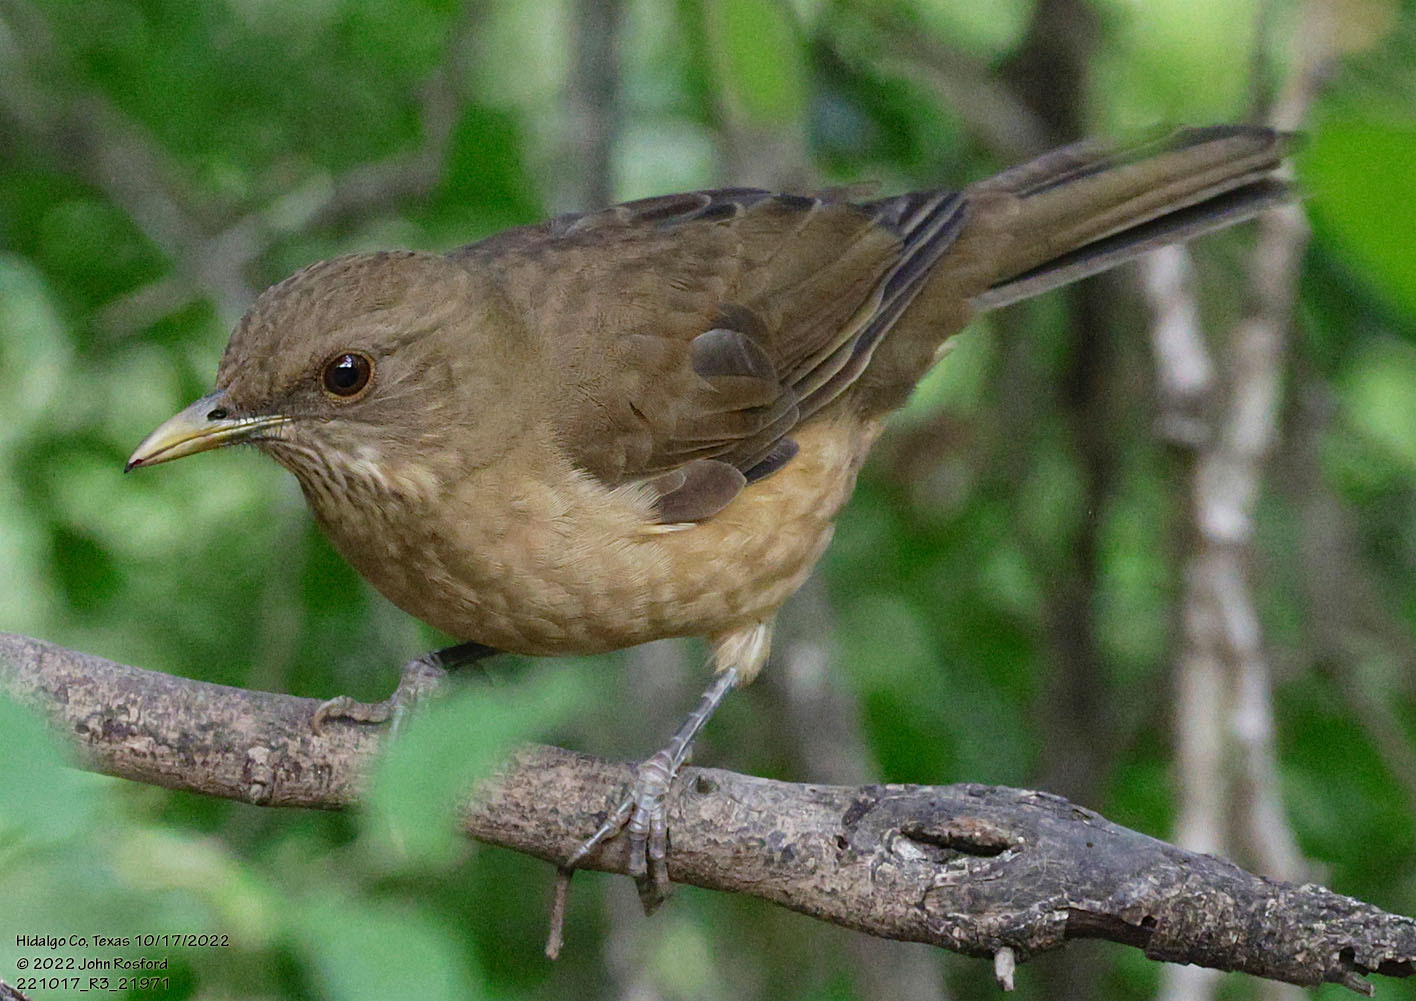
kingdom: Animalia
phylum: Chordata
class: Aves
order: Passeriformes
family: Turdidae
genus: Turdus
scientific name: Turdus grayi
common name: Clay-colored thrush
